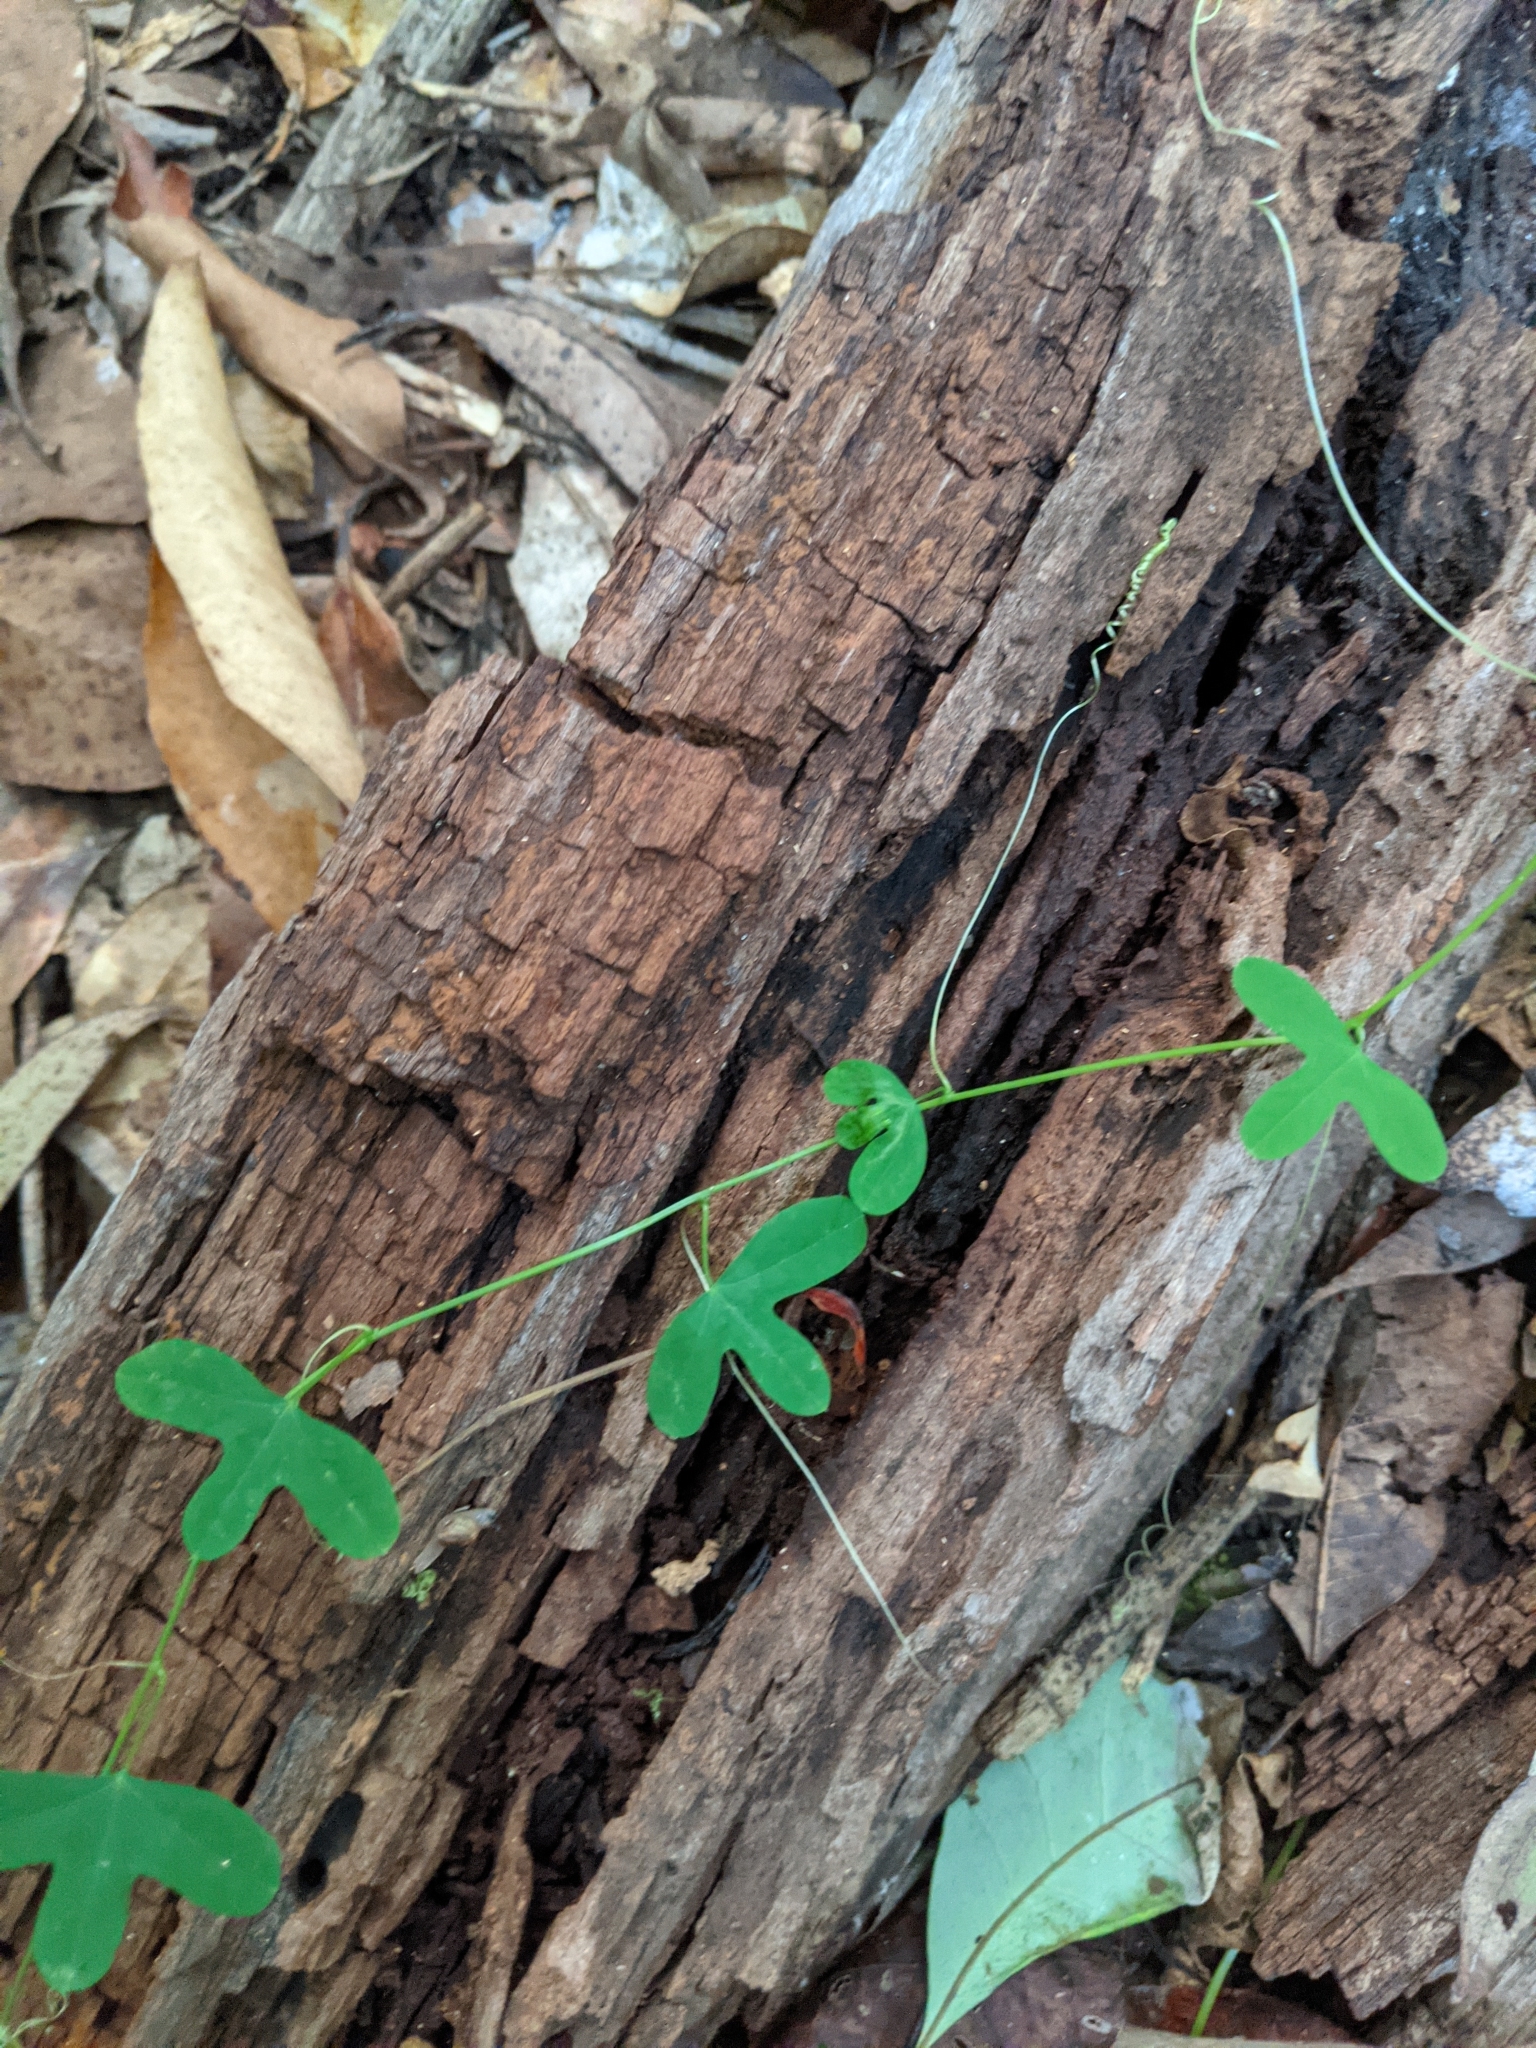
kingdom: Plantae
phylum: Tracheophyta
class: Magnoliopsida
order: Malpighiales
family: Passifloraceae
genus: Passiflora
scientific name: Passiflora aurantia
